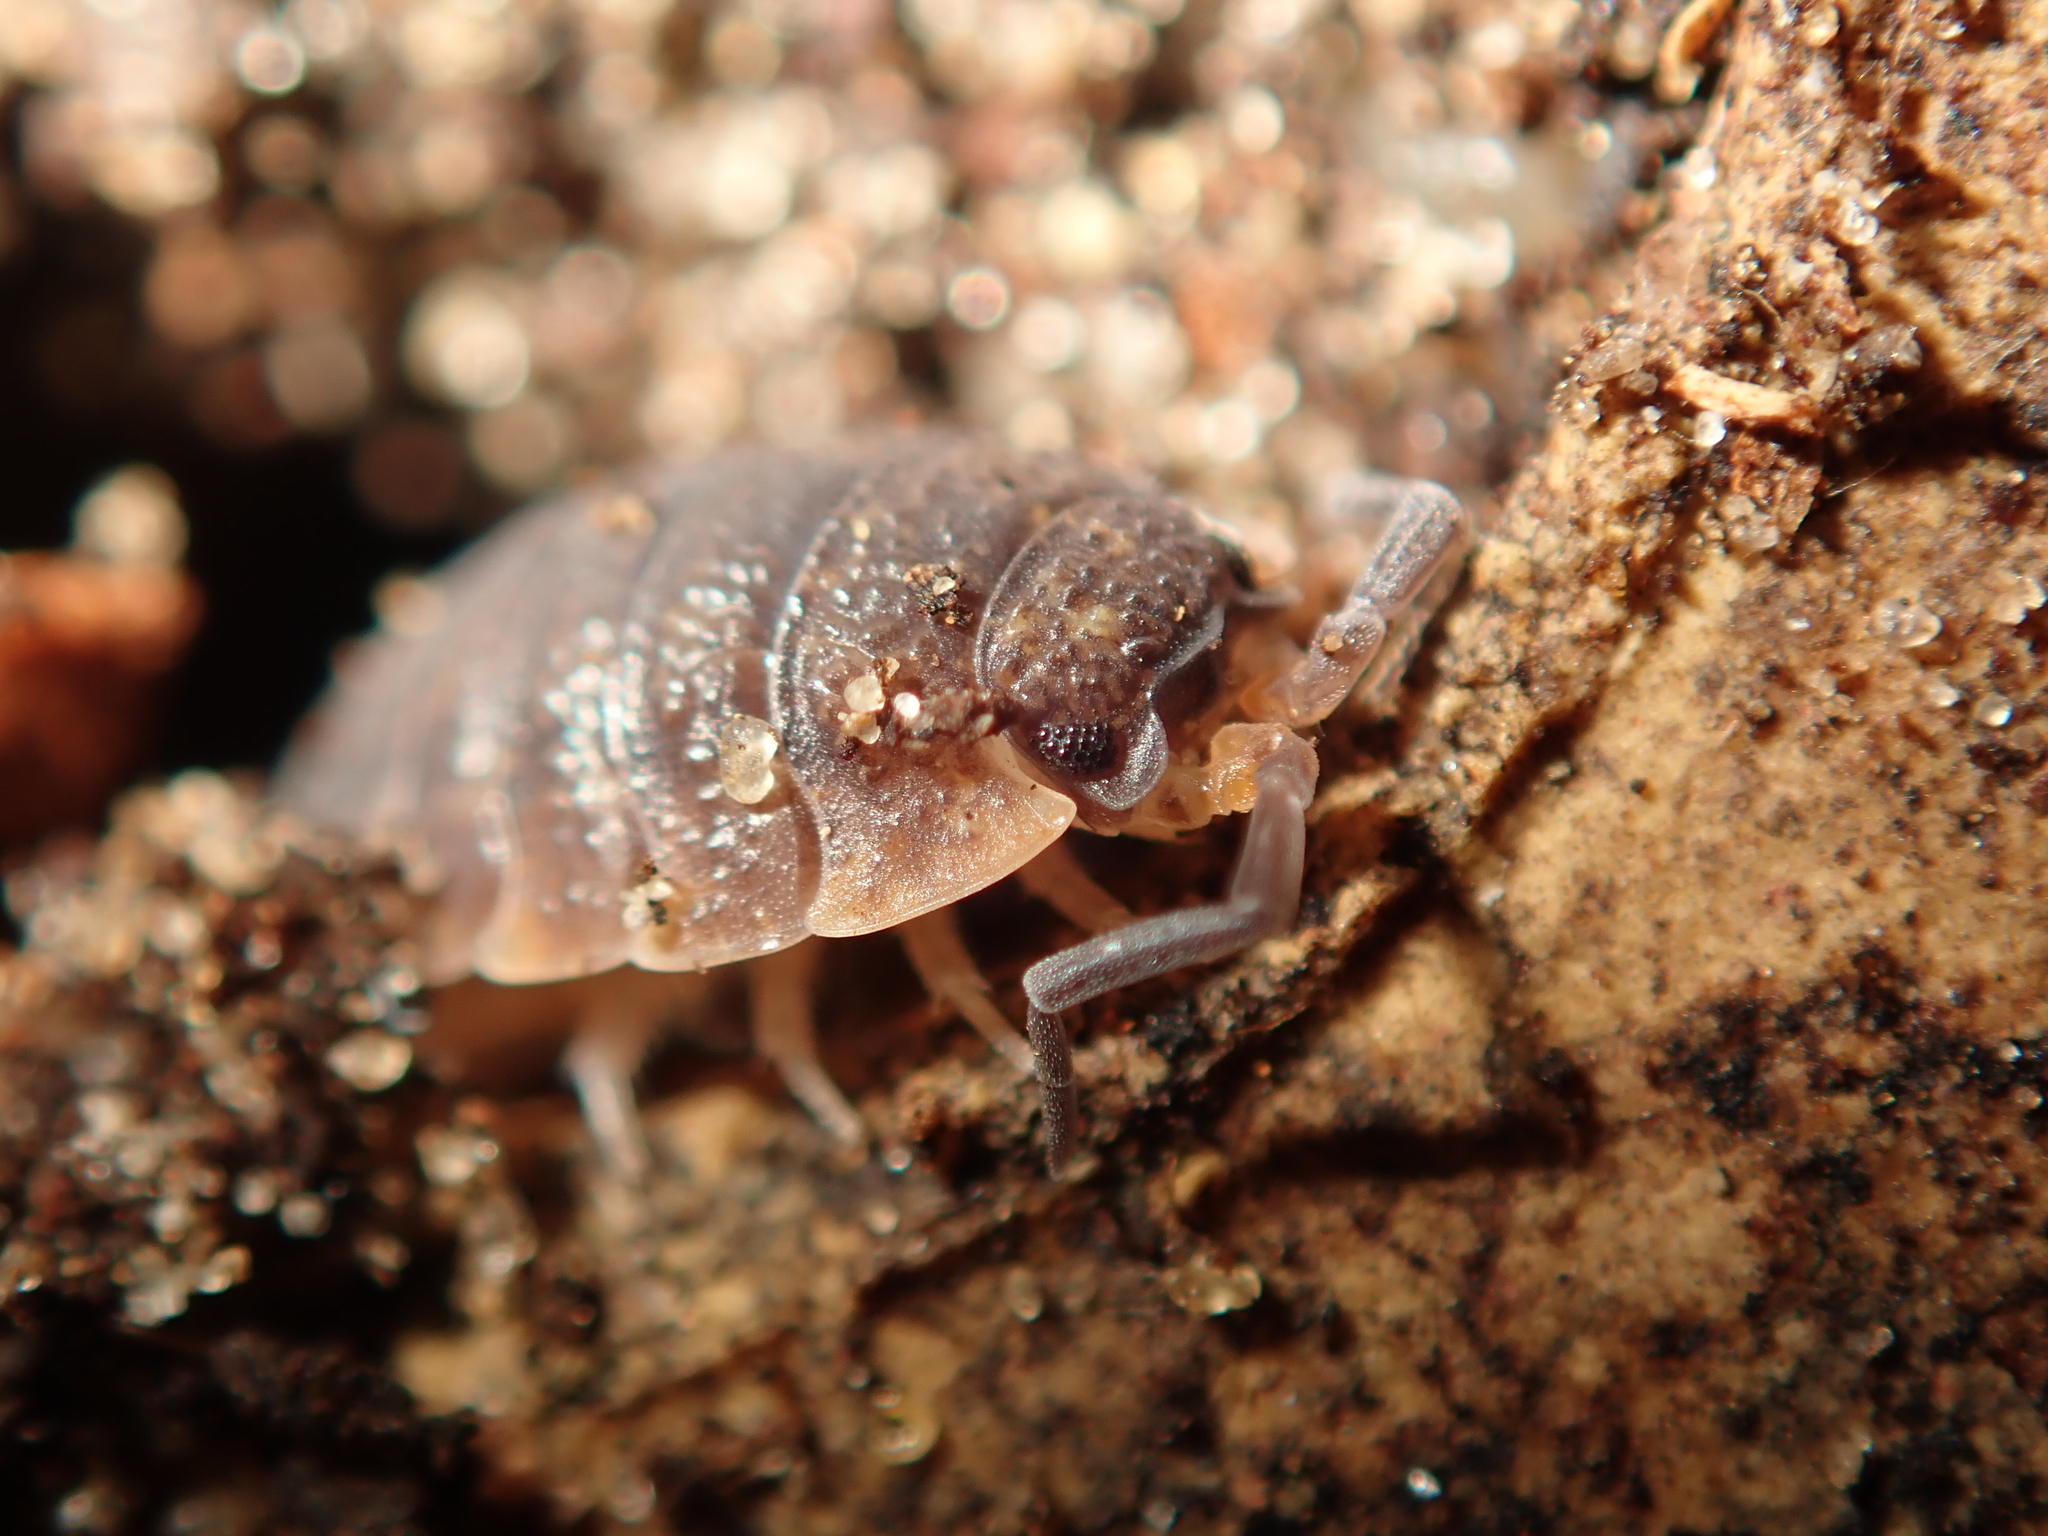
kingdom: Animalia
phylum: Arthropoda
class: Malacostraca
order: Isopoda
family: Porcellionidae
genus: Porcellio
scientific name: Porcellio scaber
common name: Common rough woodlouse
